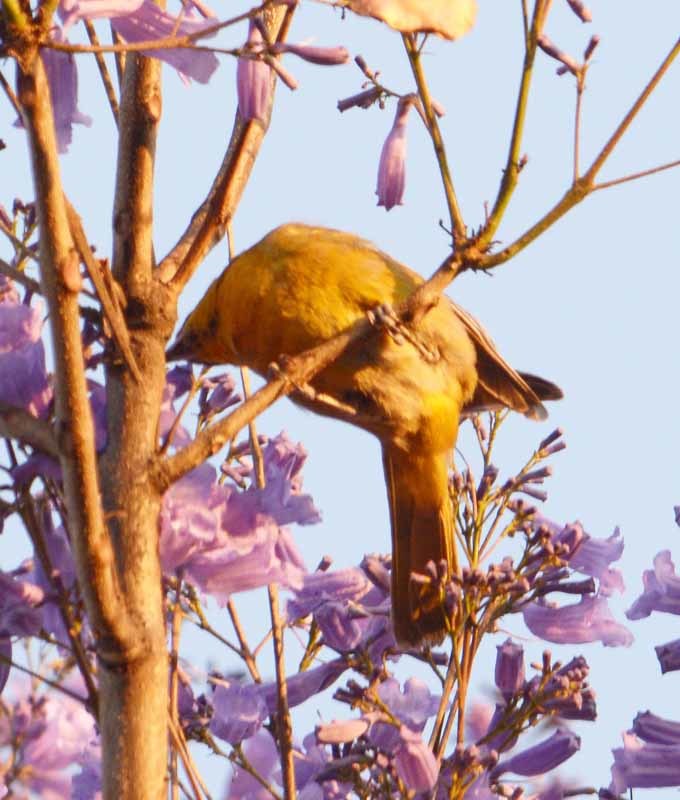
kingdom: Animalia
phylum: Chordata
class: Aves
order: Passeriformes
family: Icteridae
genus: Icterus
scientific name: Icterus abeillei
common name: Black-backed oriole
